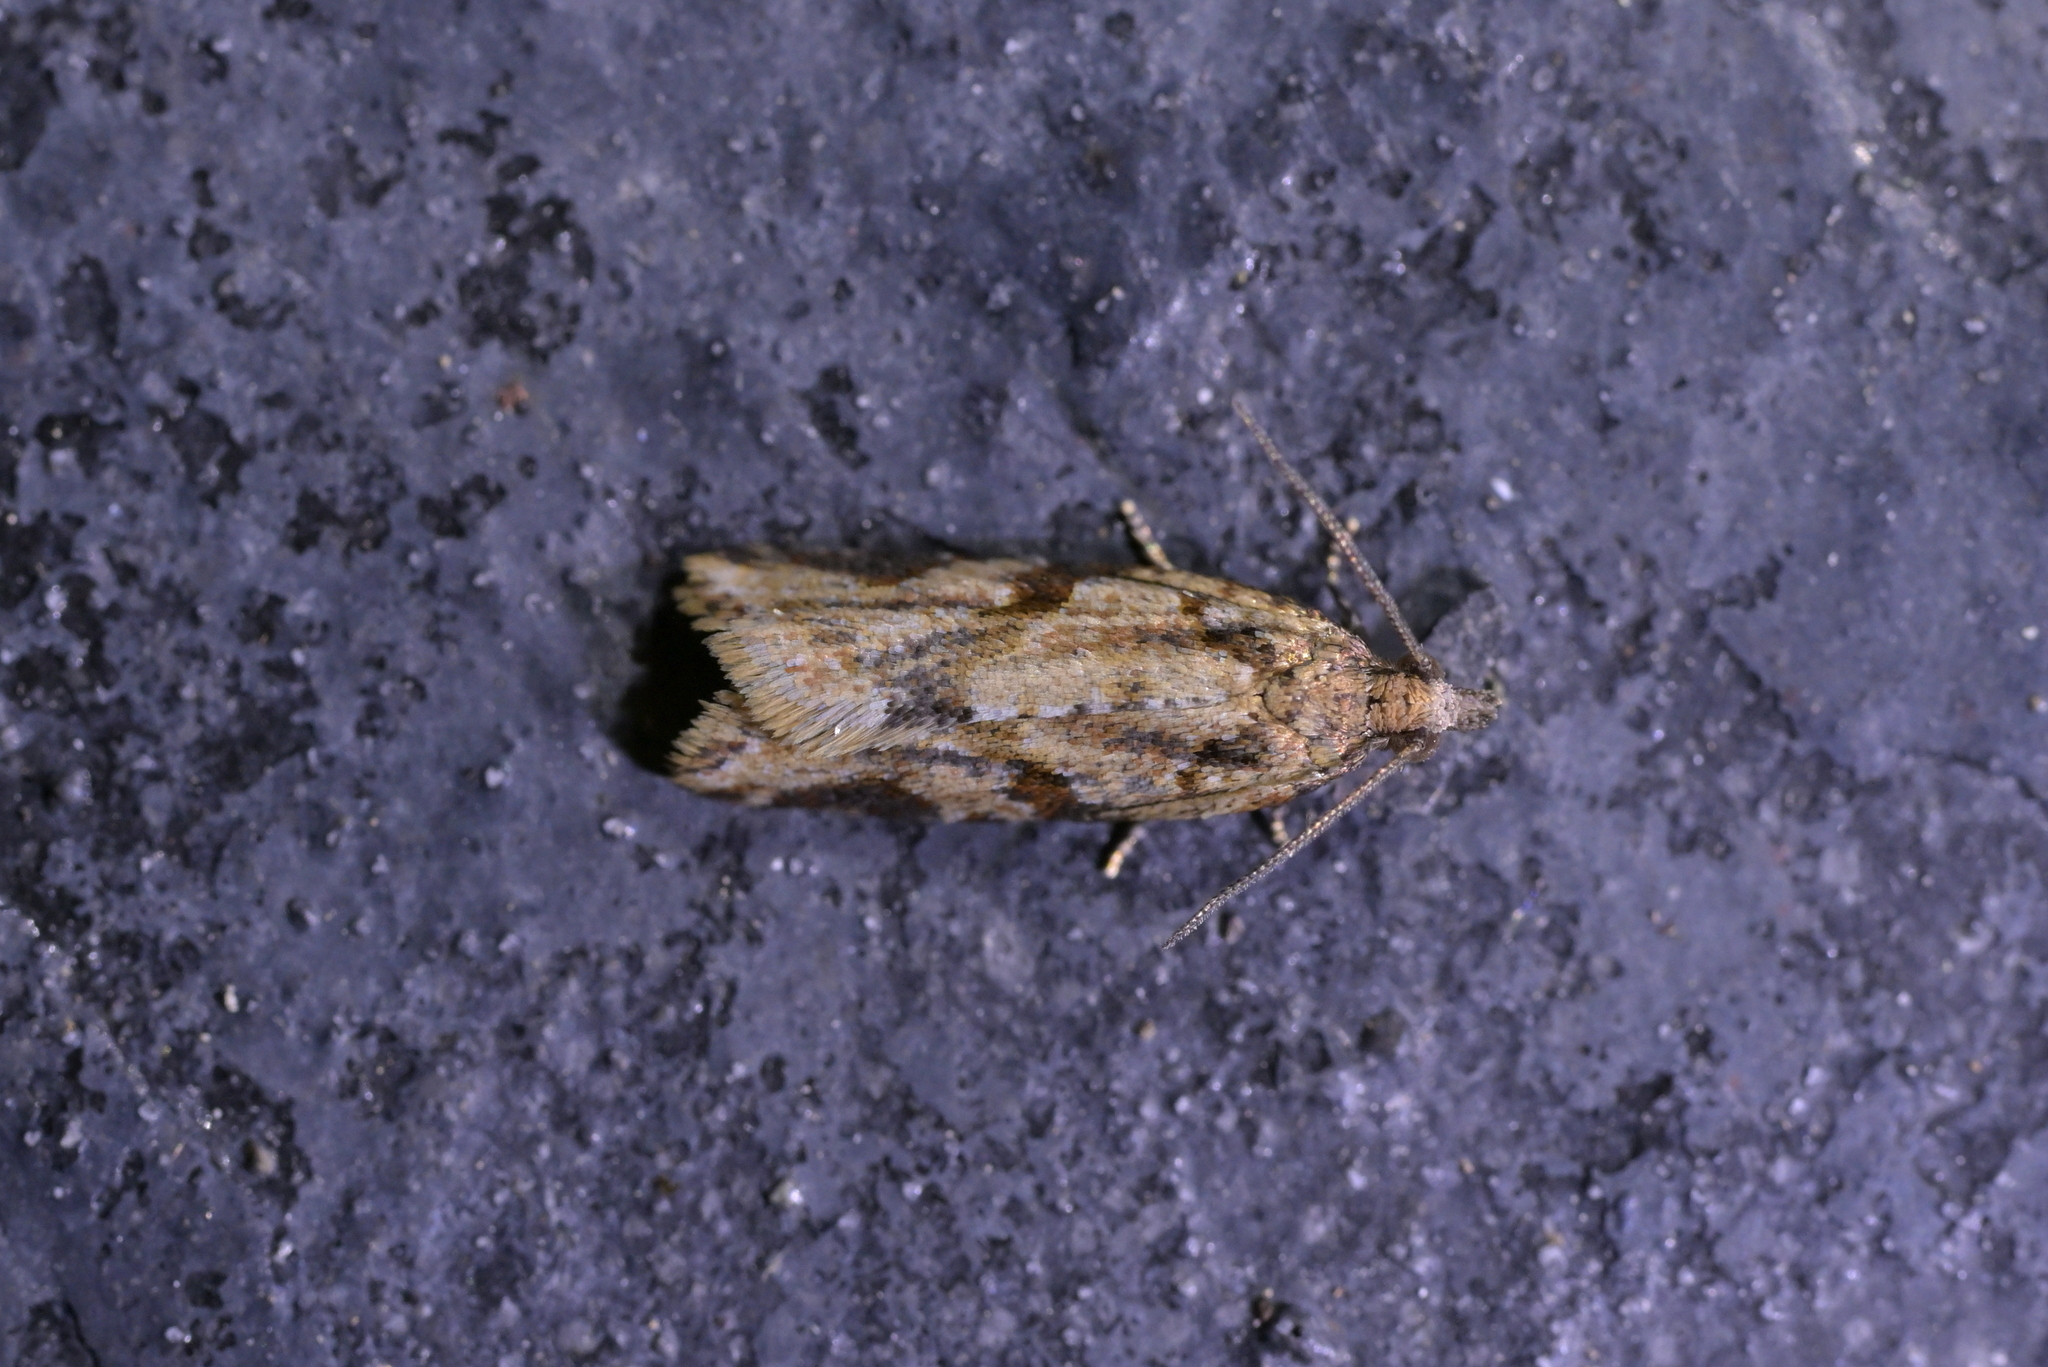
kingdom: Animalia
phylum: Arthropoda
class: Insecta
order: Lepidoptera
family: Tortricidae
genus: Capua
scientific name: Capua semiferana
